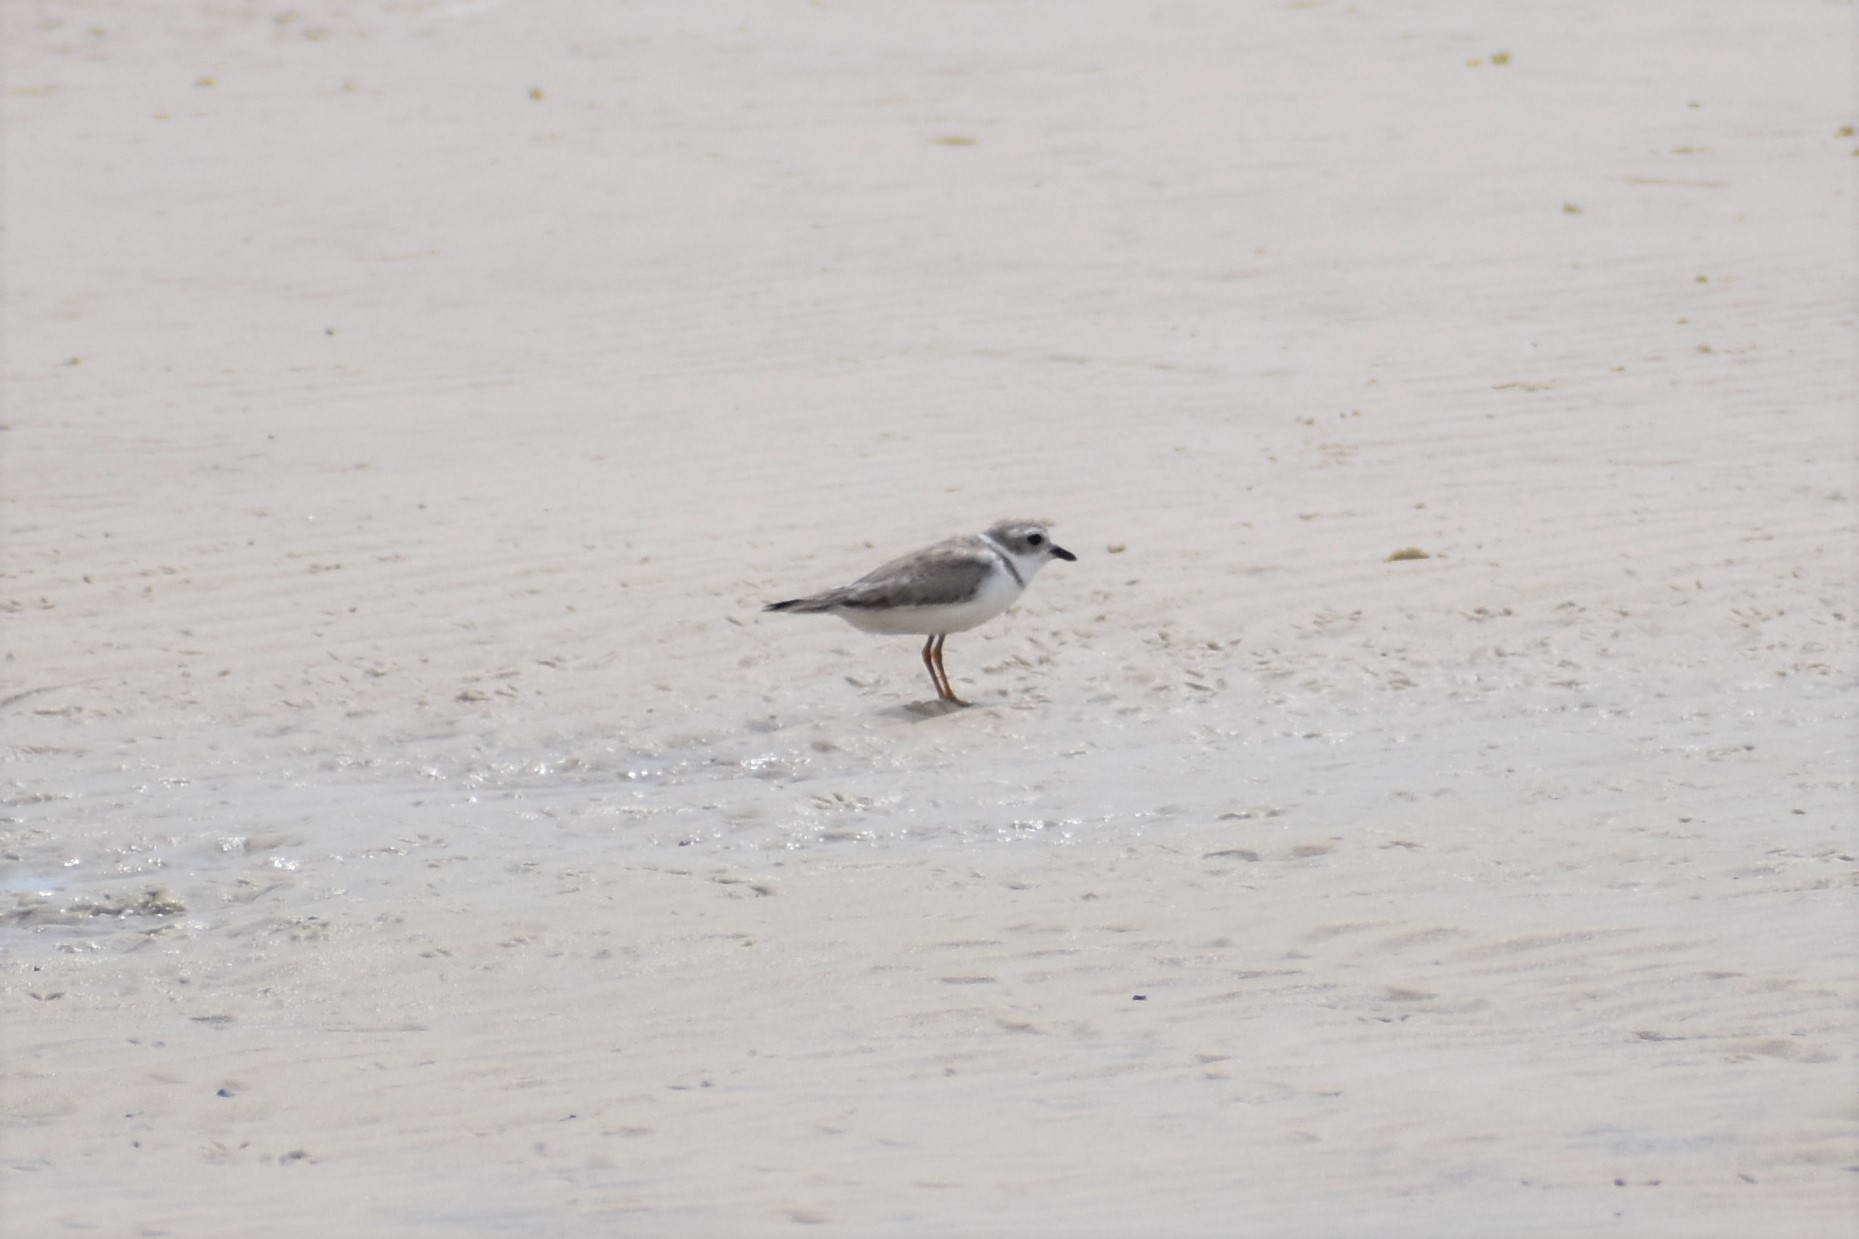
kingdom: Animalia
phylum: Chordata
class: Aves
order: Charadriiformes
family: Charadriidae
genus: Charadrius
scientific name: Charadrius melodus
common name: Piping plover
